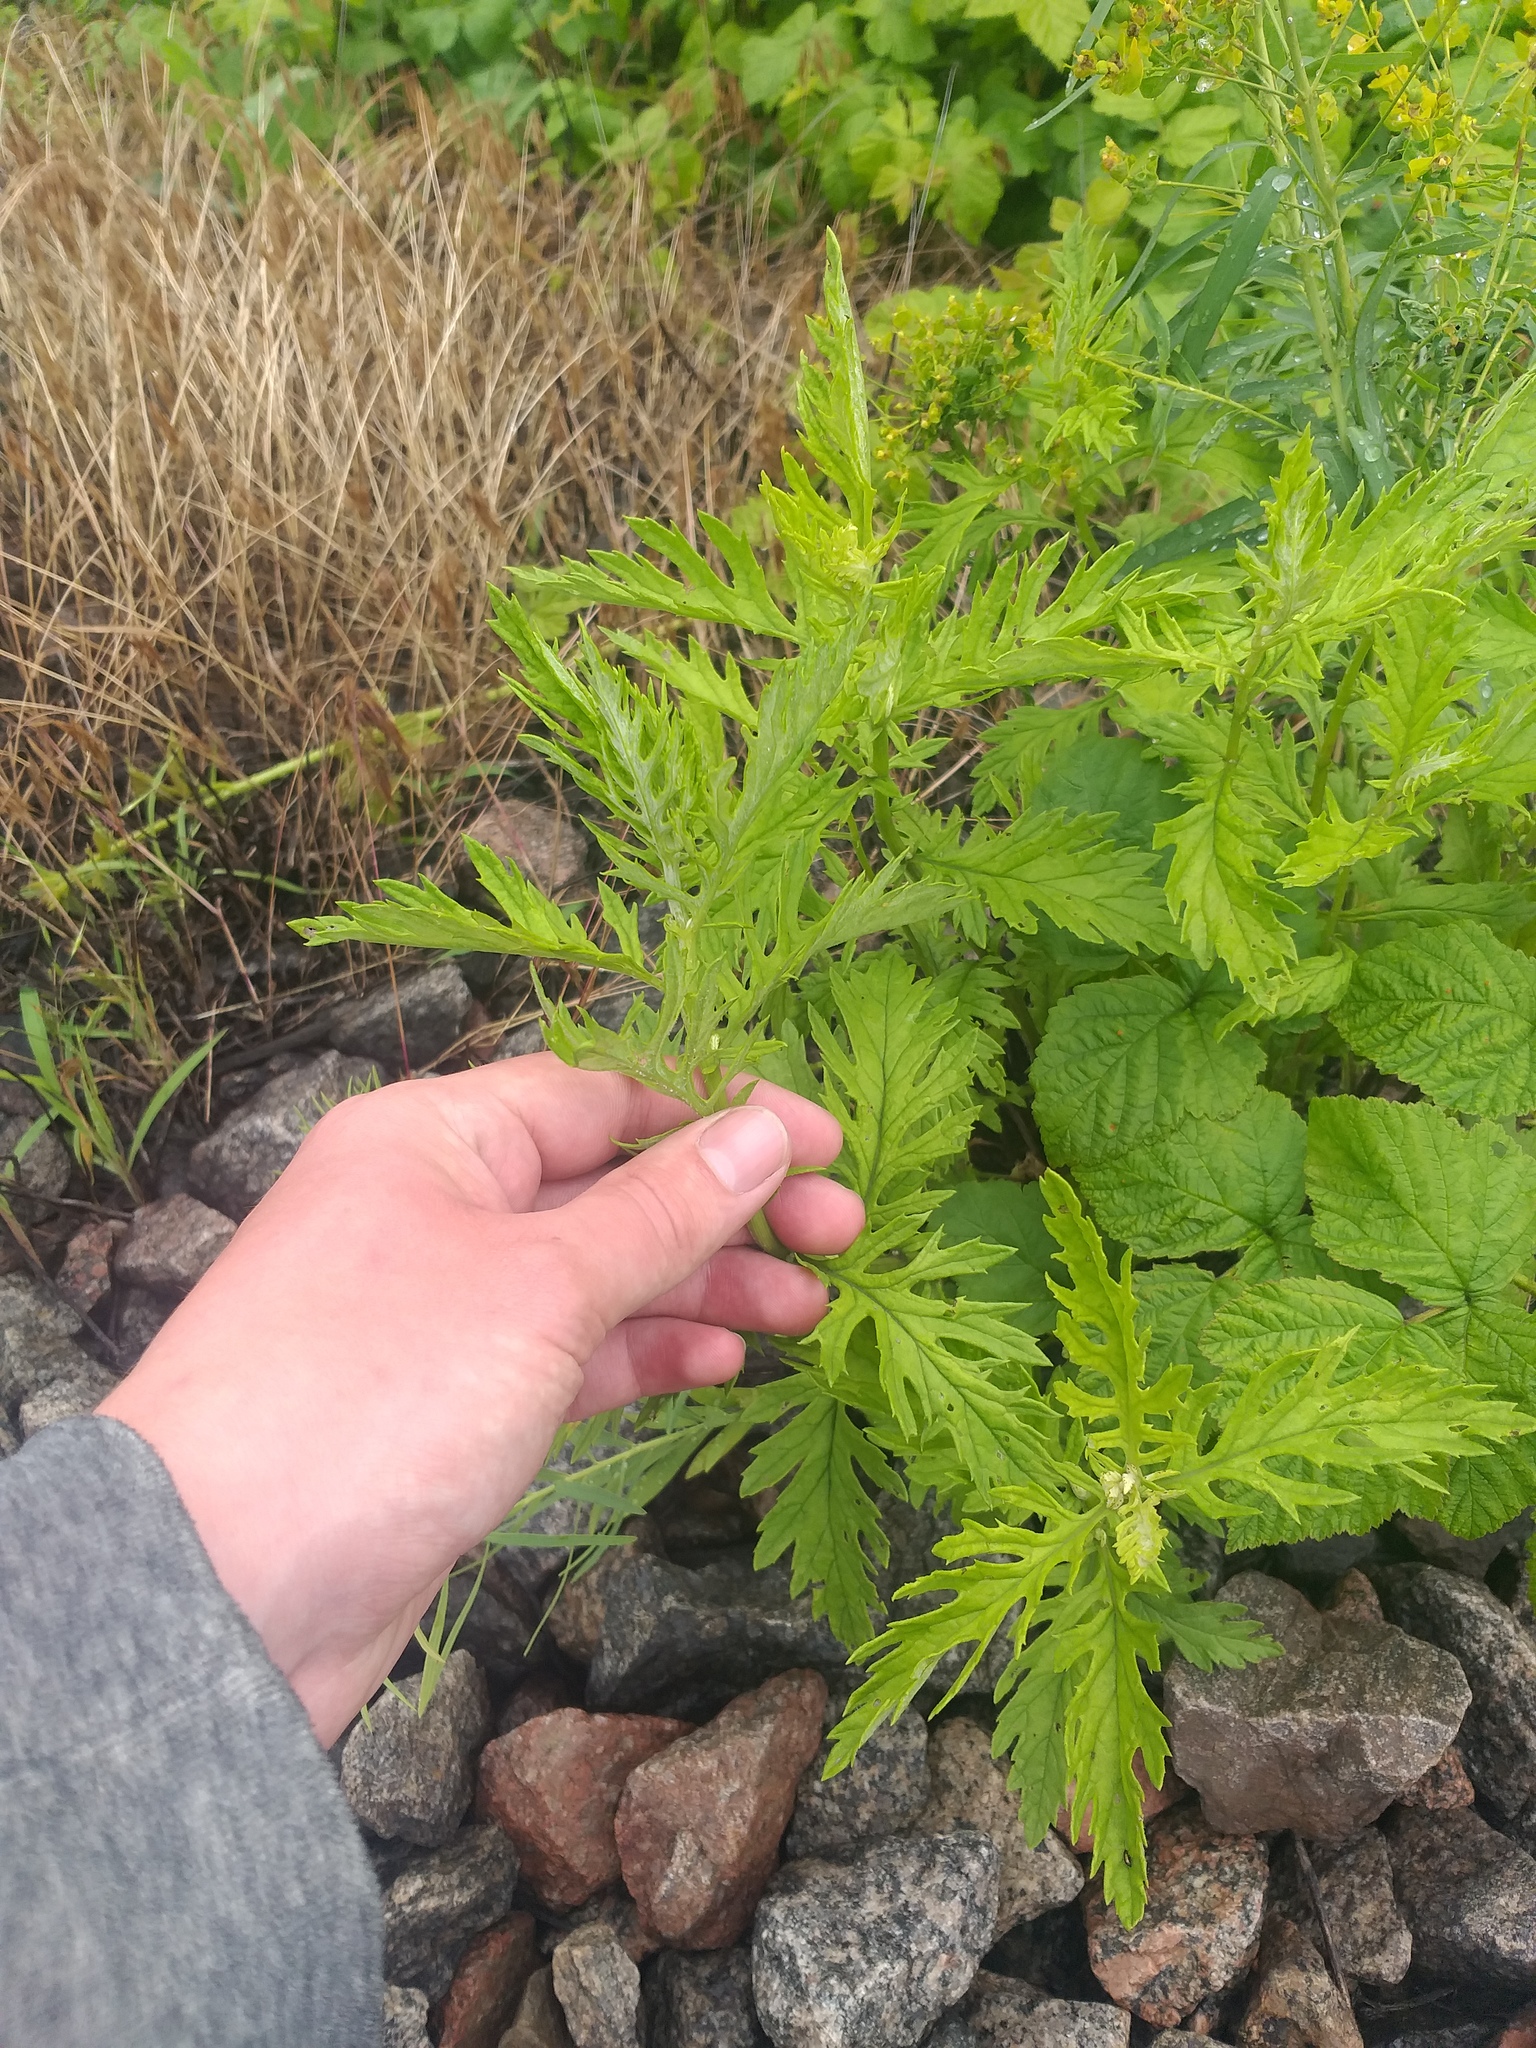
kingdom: Plantae
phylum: Tracheophyta
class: Magnoliopsida
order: Asterales
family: Asteraceae
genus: Jacobaea
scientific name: Jacobaea erucifolia
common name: Hoary ragwort
